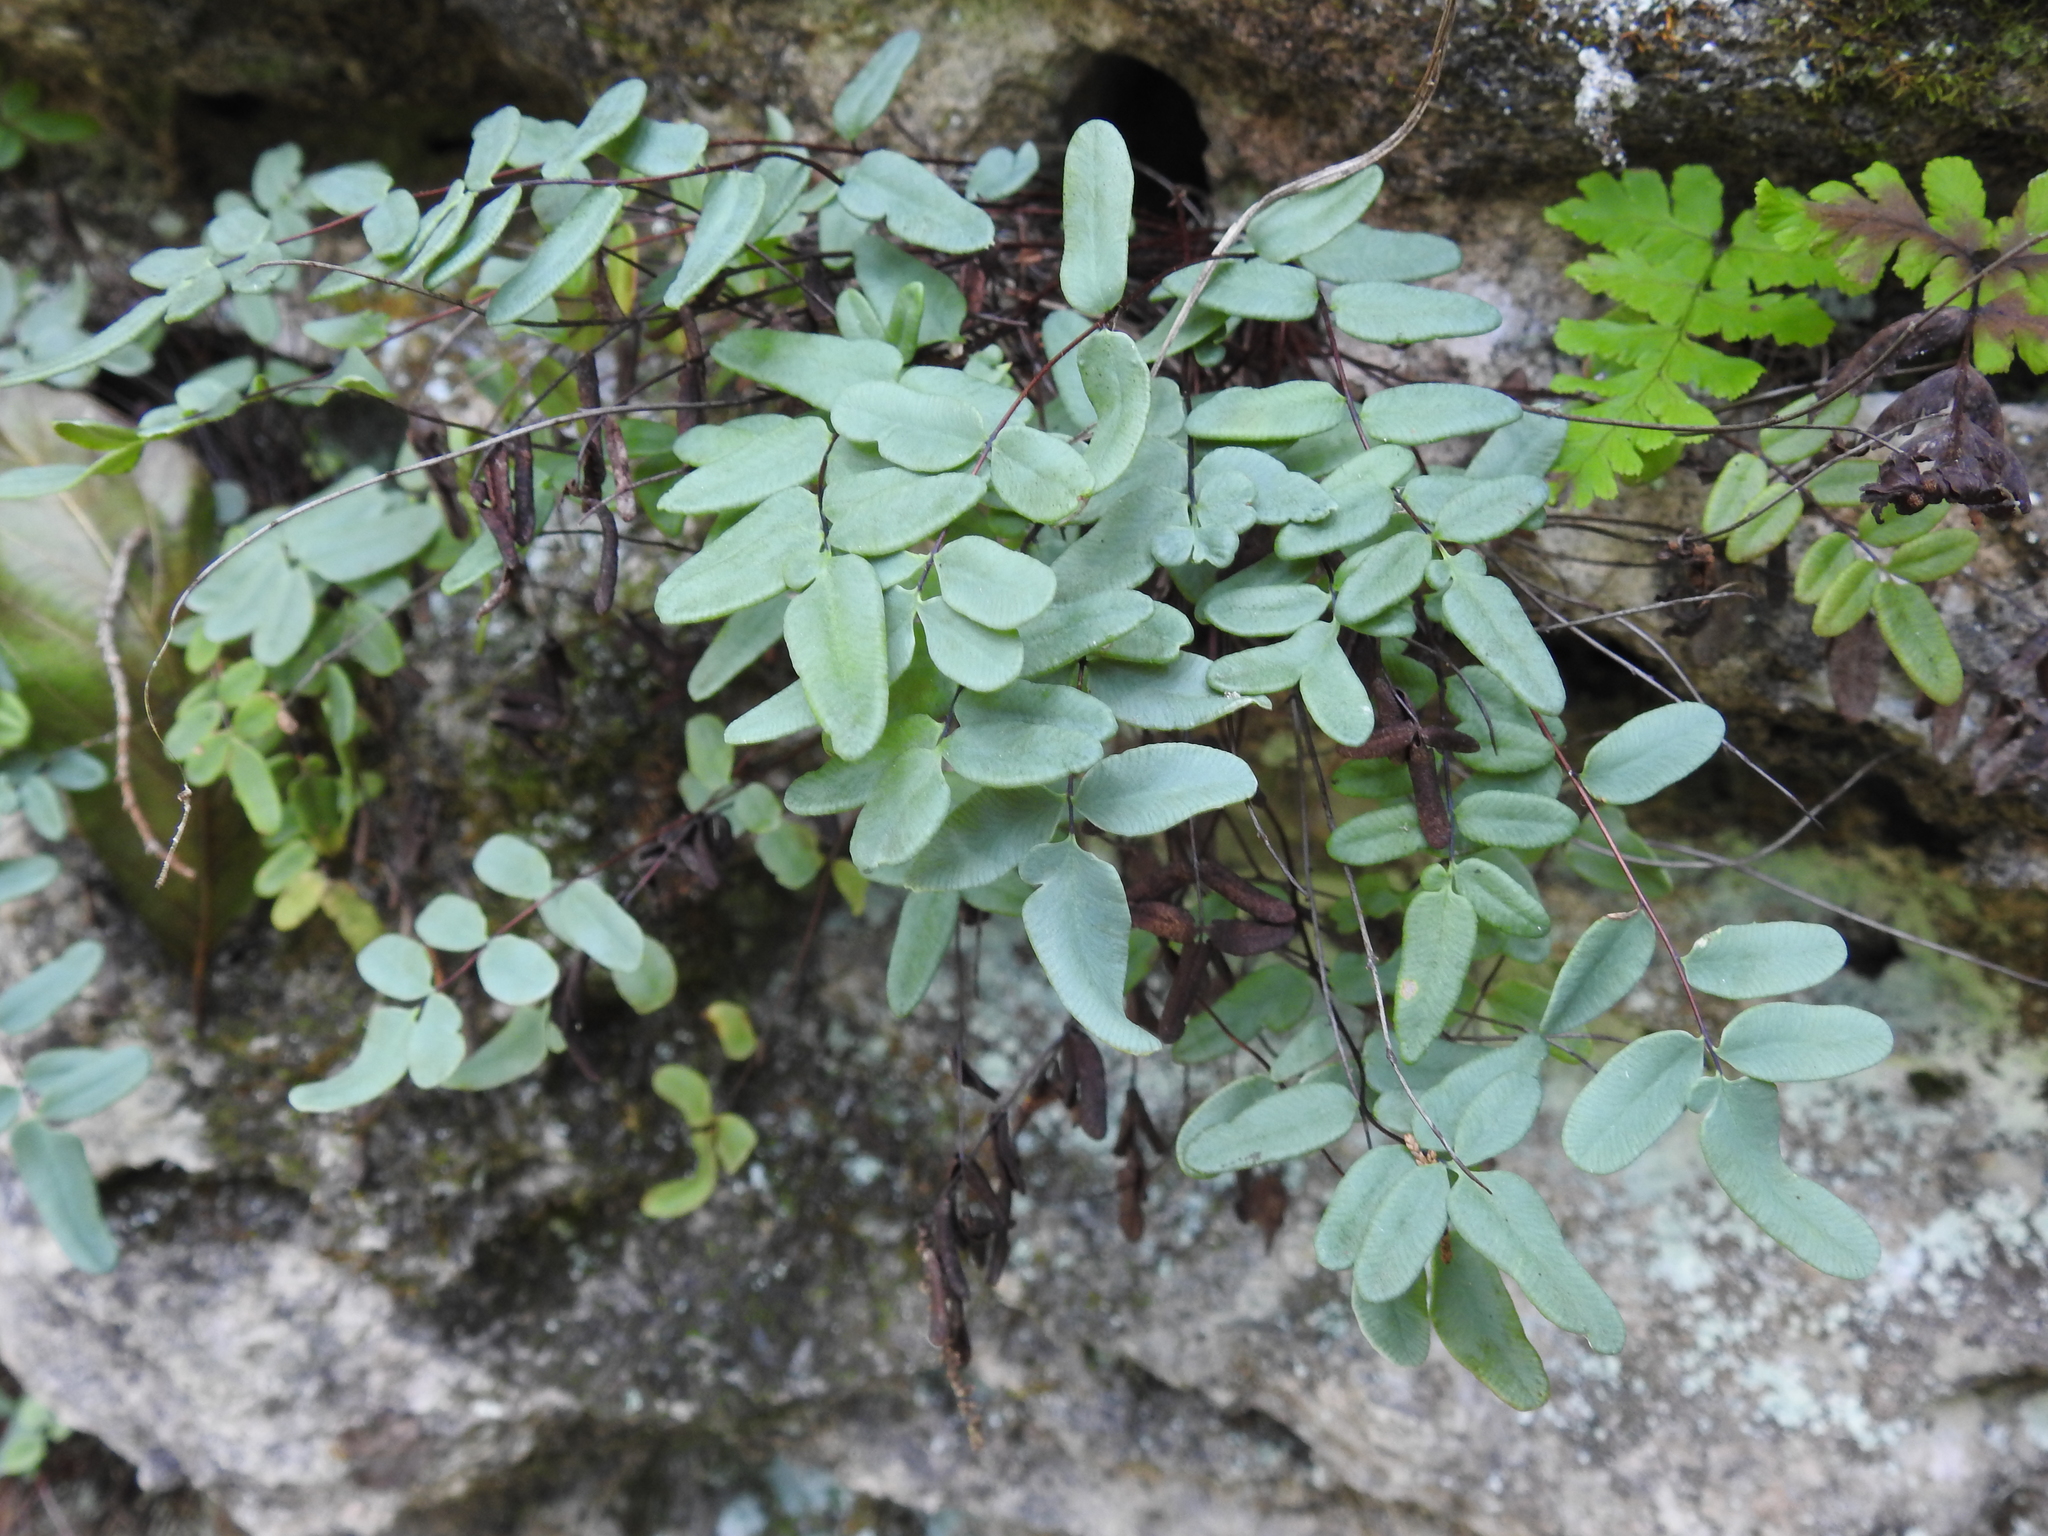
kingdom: Plantae
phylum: Tracheophyta
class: Polypodiopsida
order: Polypodiales
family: Pteridaceae
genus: Pellaea
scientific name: Pellaea glabella
